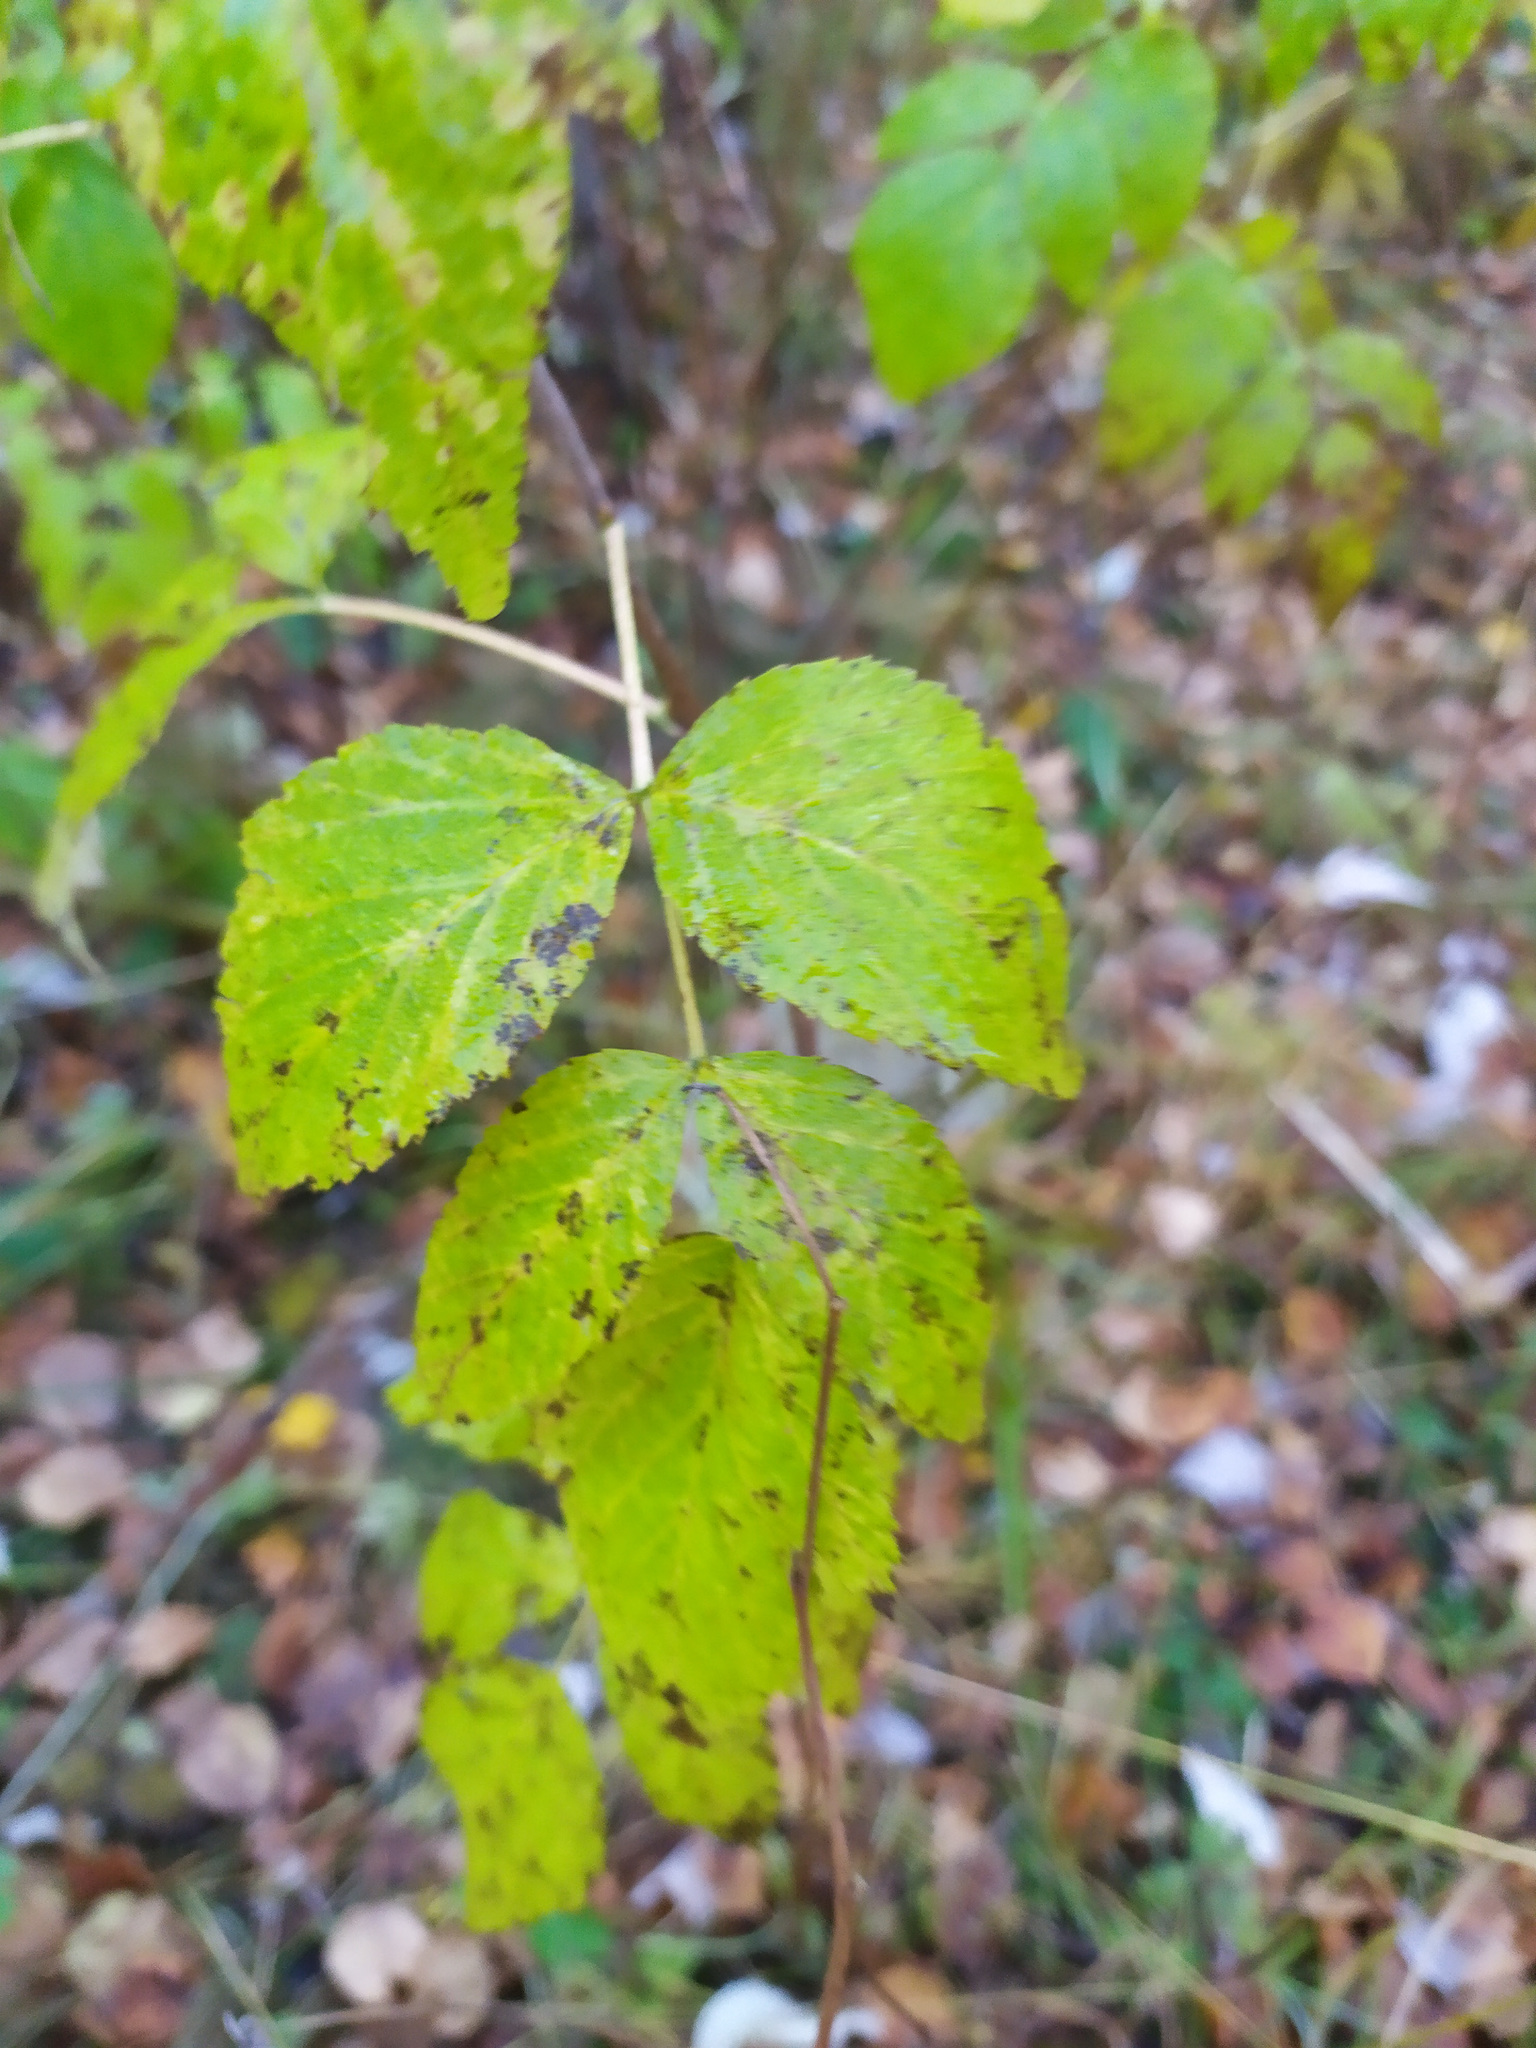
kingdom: Plantae
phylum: Tracheophyta
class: Magnoliopsida
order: Rosales
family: Rosaceae
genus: Rubus
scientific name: Rubus idaeus
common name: Raspberry
